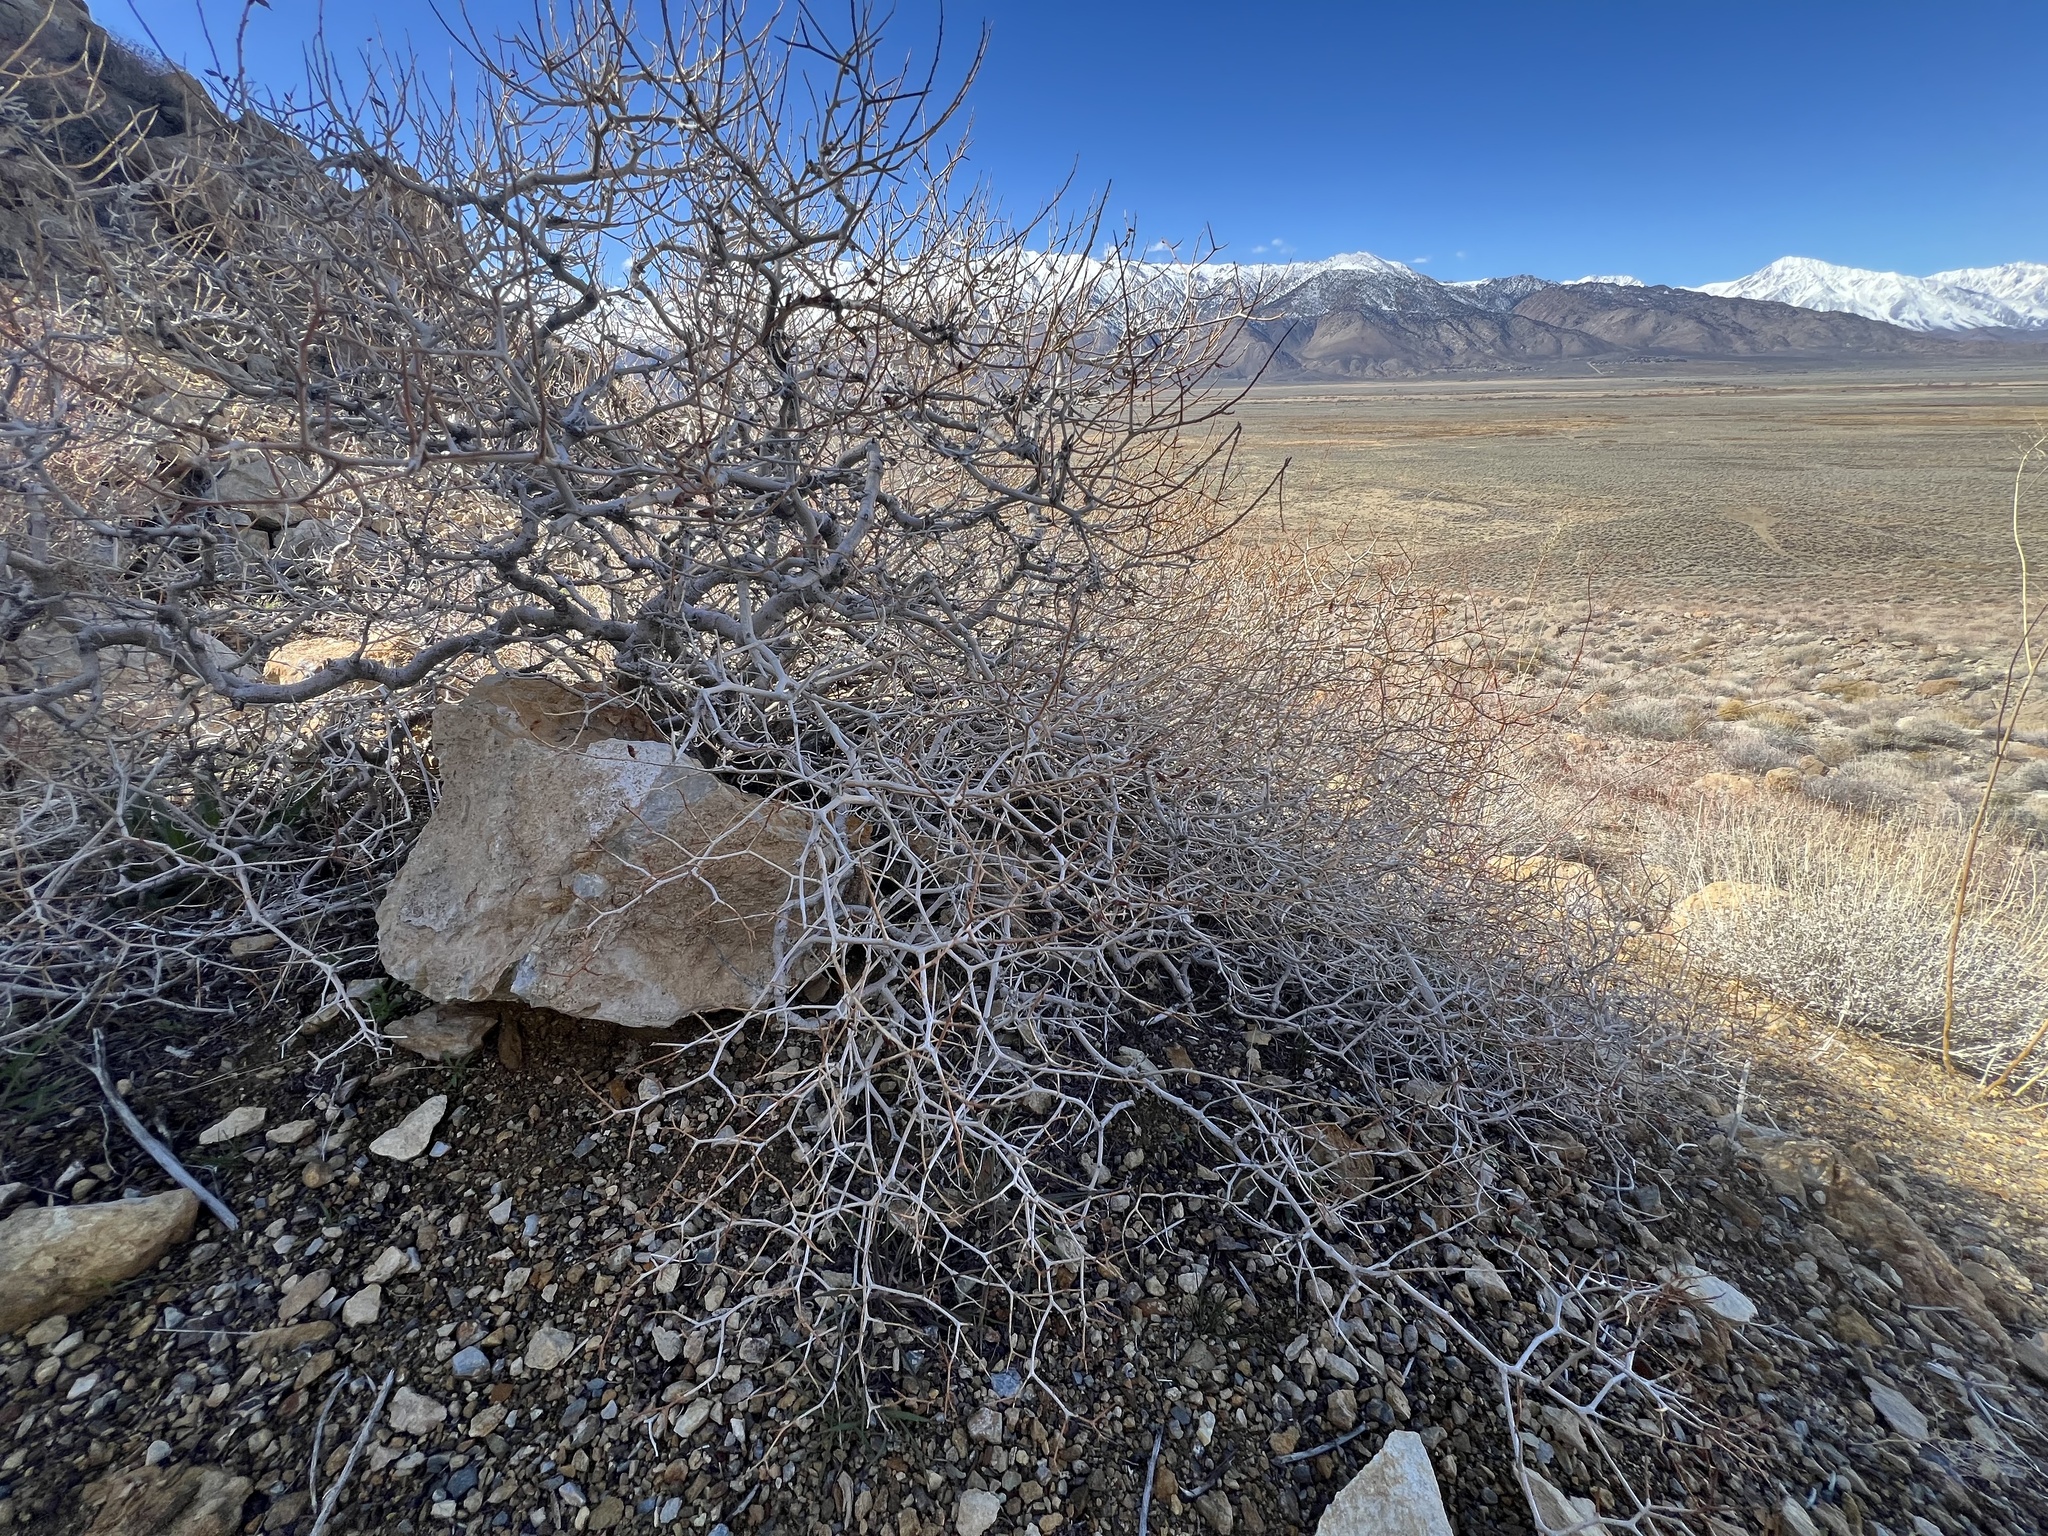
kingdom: Plantae
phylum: Tracheophyta
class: Magnoliopsida
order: Fabales
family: Fabaceae
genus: Psorothamnus
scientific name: Psorothamnus arborescens
